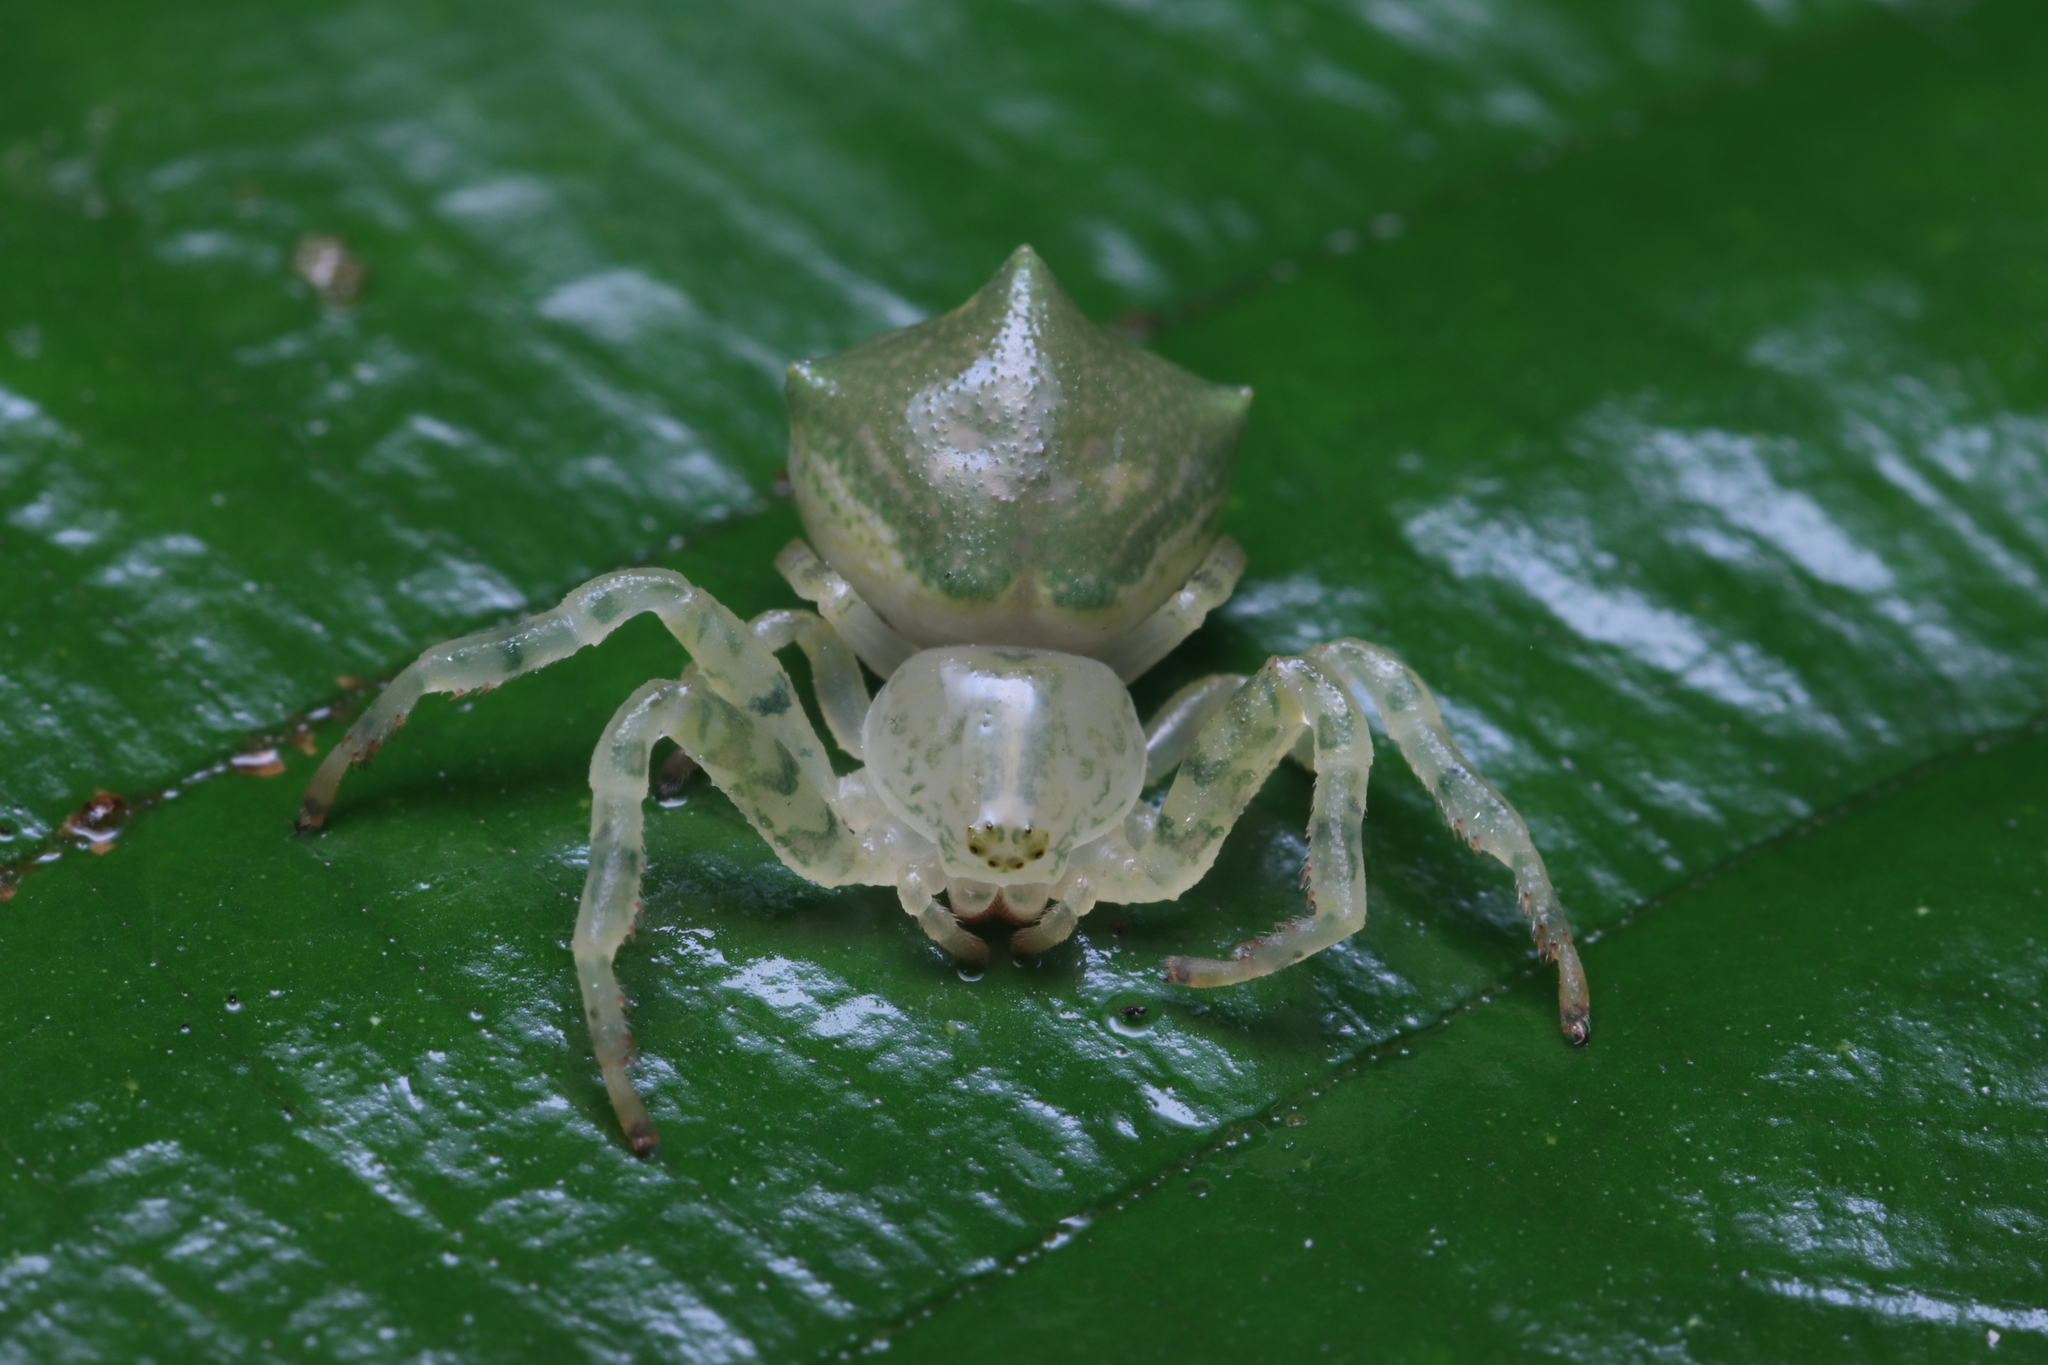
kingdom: Animalia
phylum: Arthropoda
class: Arachnida
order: Araneae
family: Thomisidae
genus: Epicadus
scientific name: Epicadus dimidiaster
